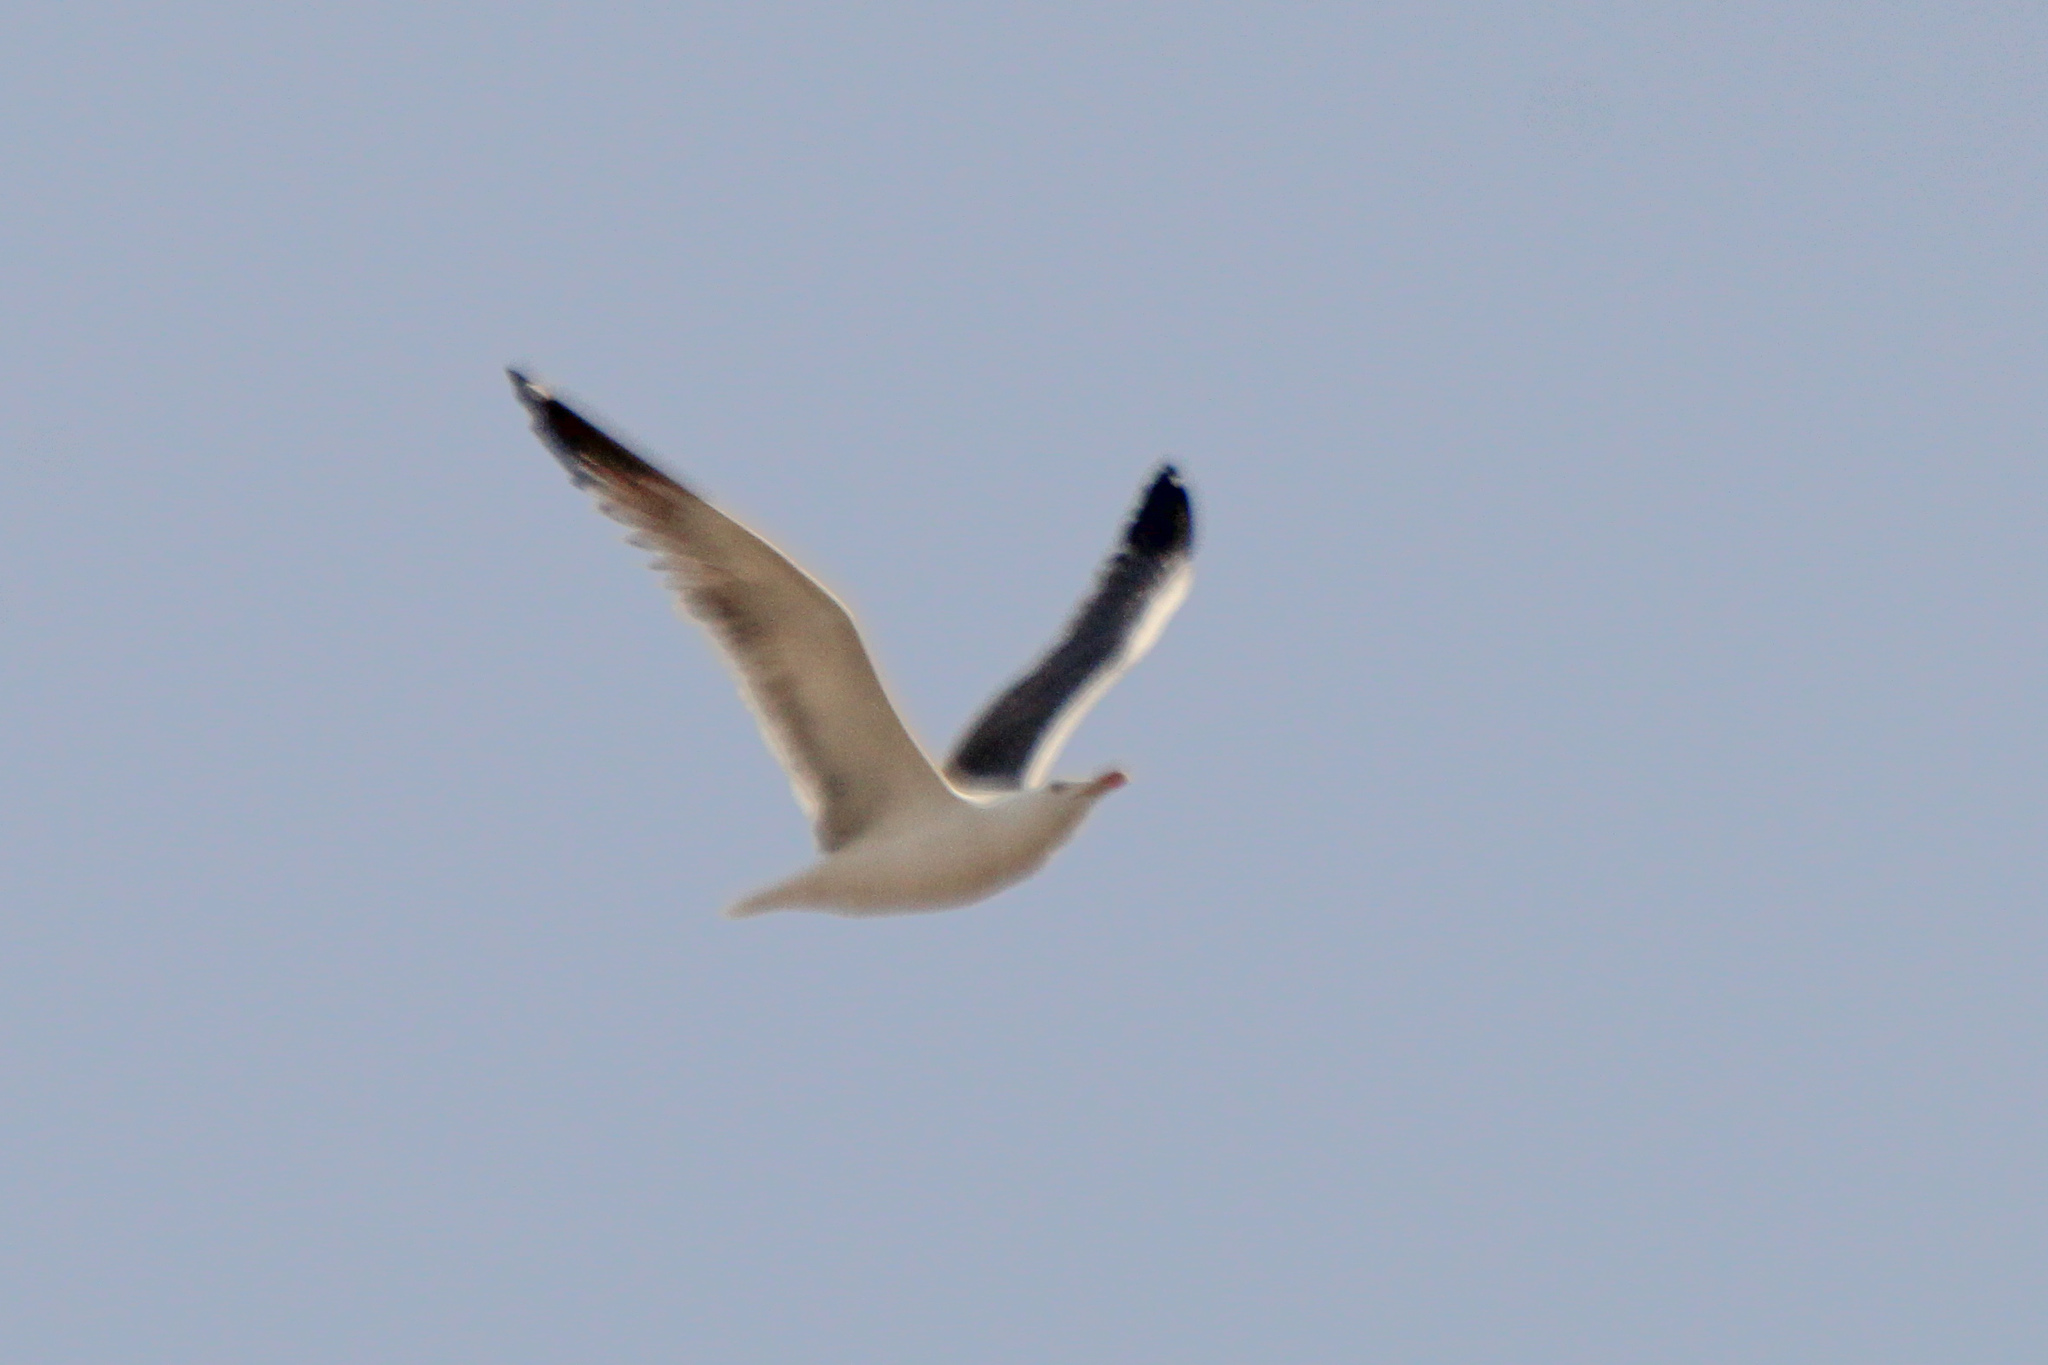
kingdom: Animalia
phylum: Chordata
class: Aves
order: Charadriiformes
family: Laridae
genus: Larus
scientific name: Larus fuscus
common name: Lesser black-backed gull
